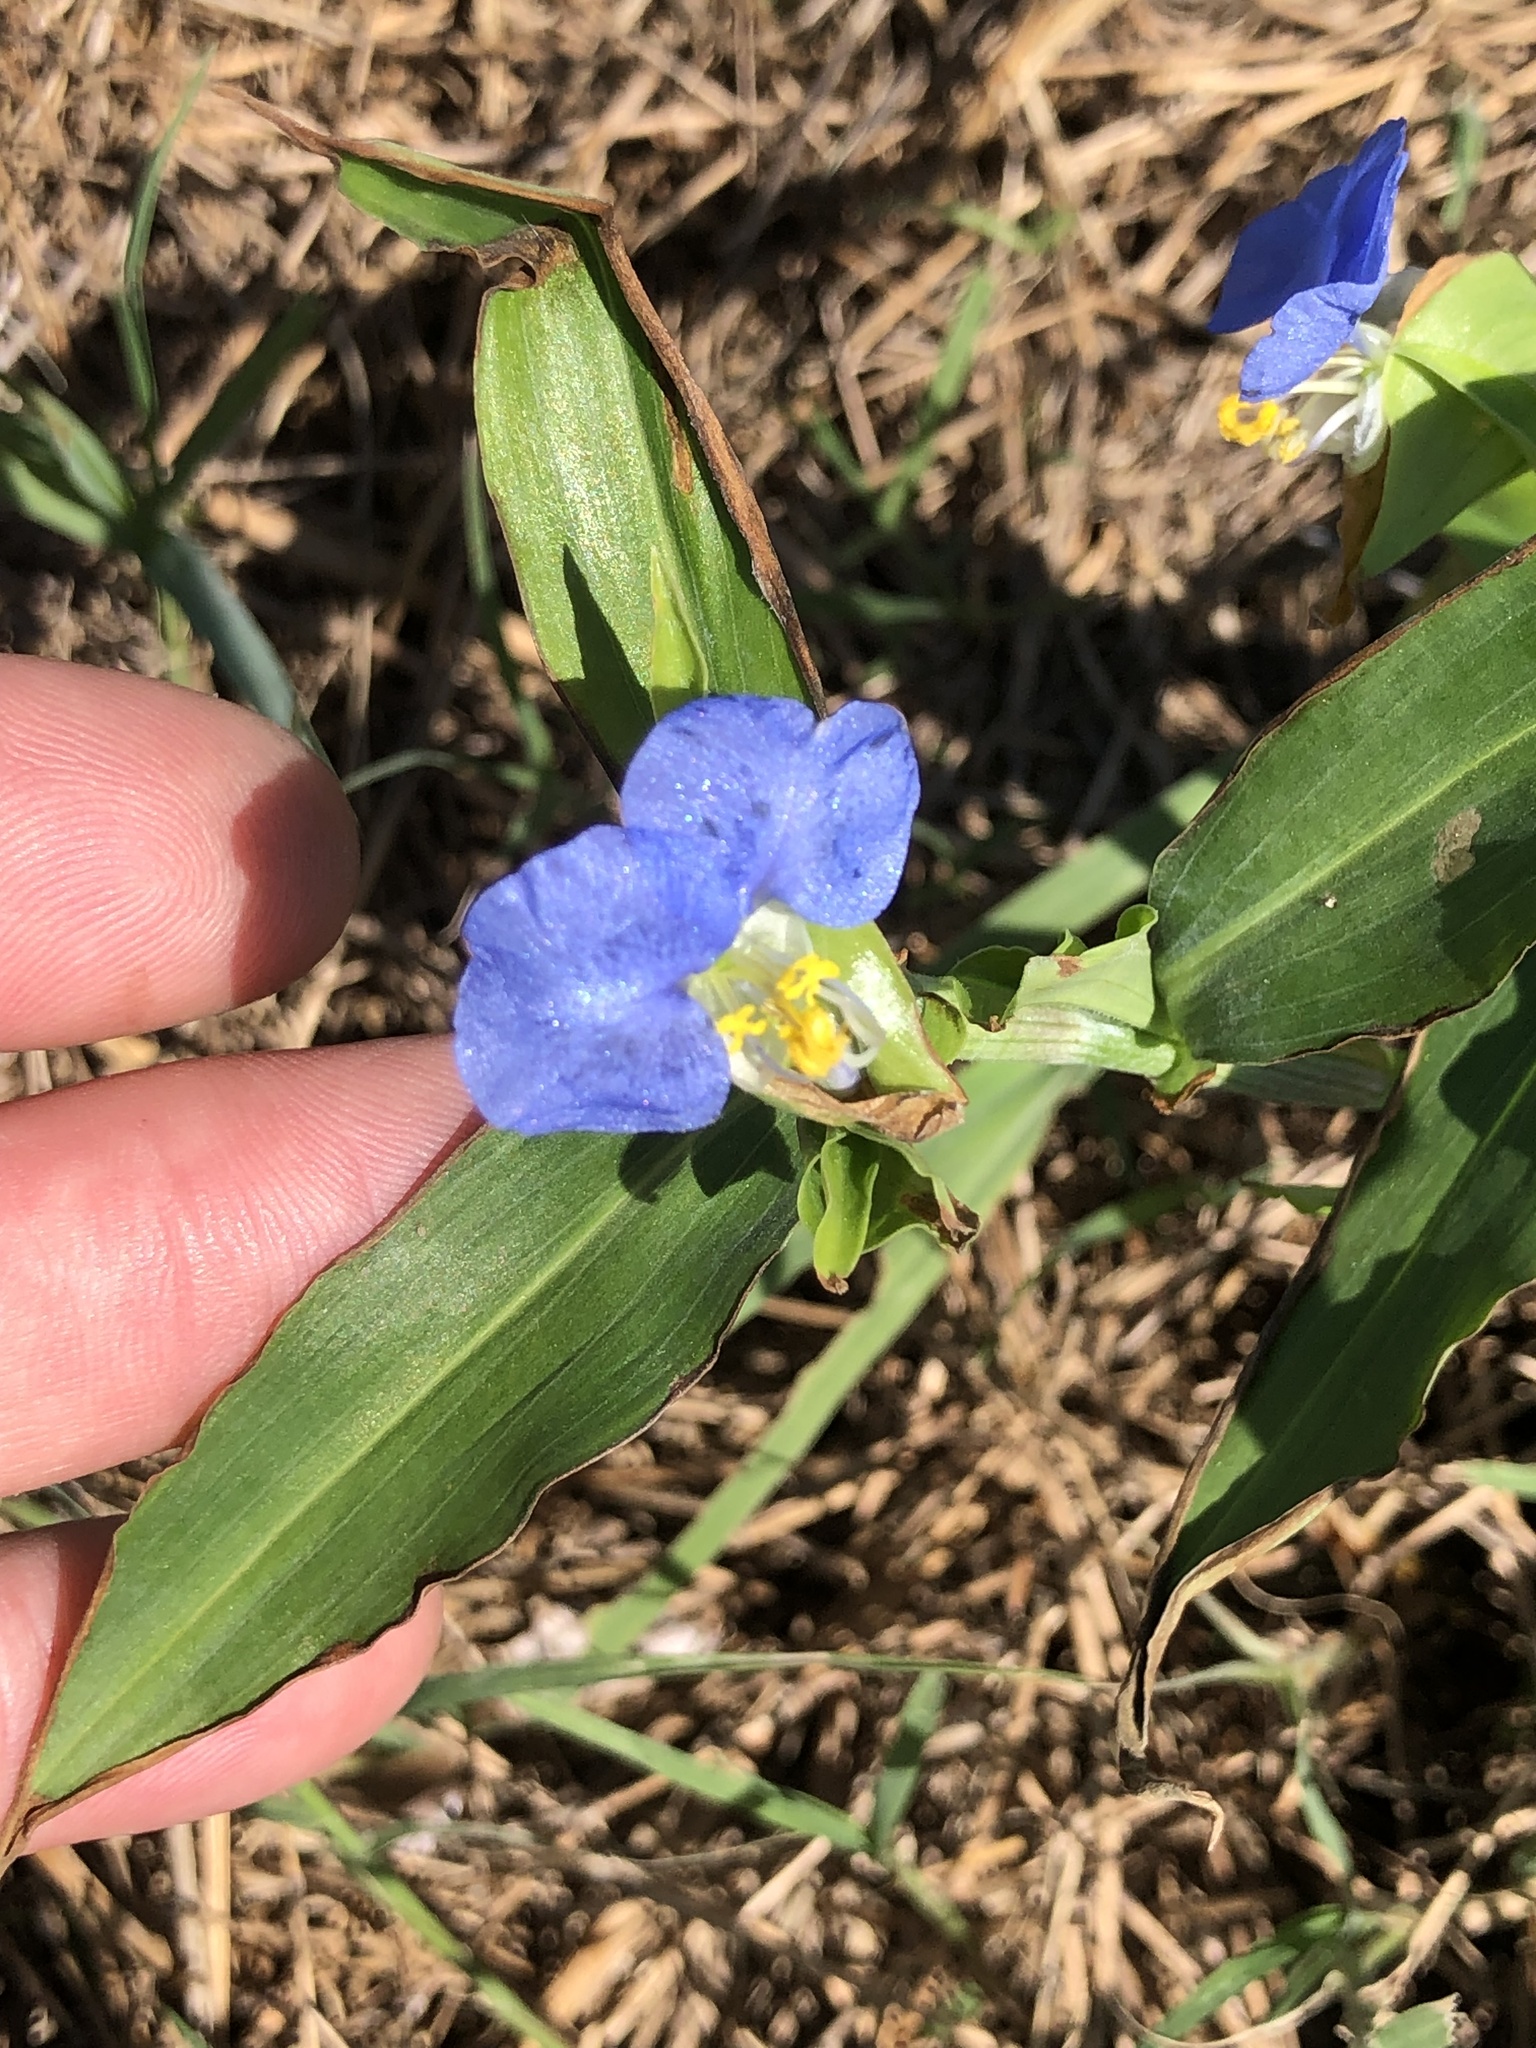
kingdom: Plantae
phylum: Tracheophyta
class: Liliopsida
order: Commelinales
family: Commelinaceae
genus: Commelina
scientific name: Commelina erecta
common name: Blousel blommetjie
